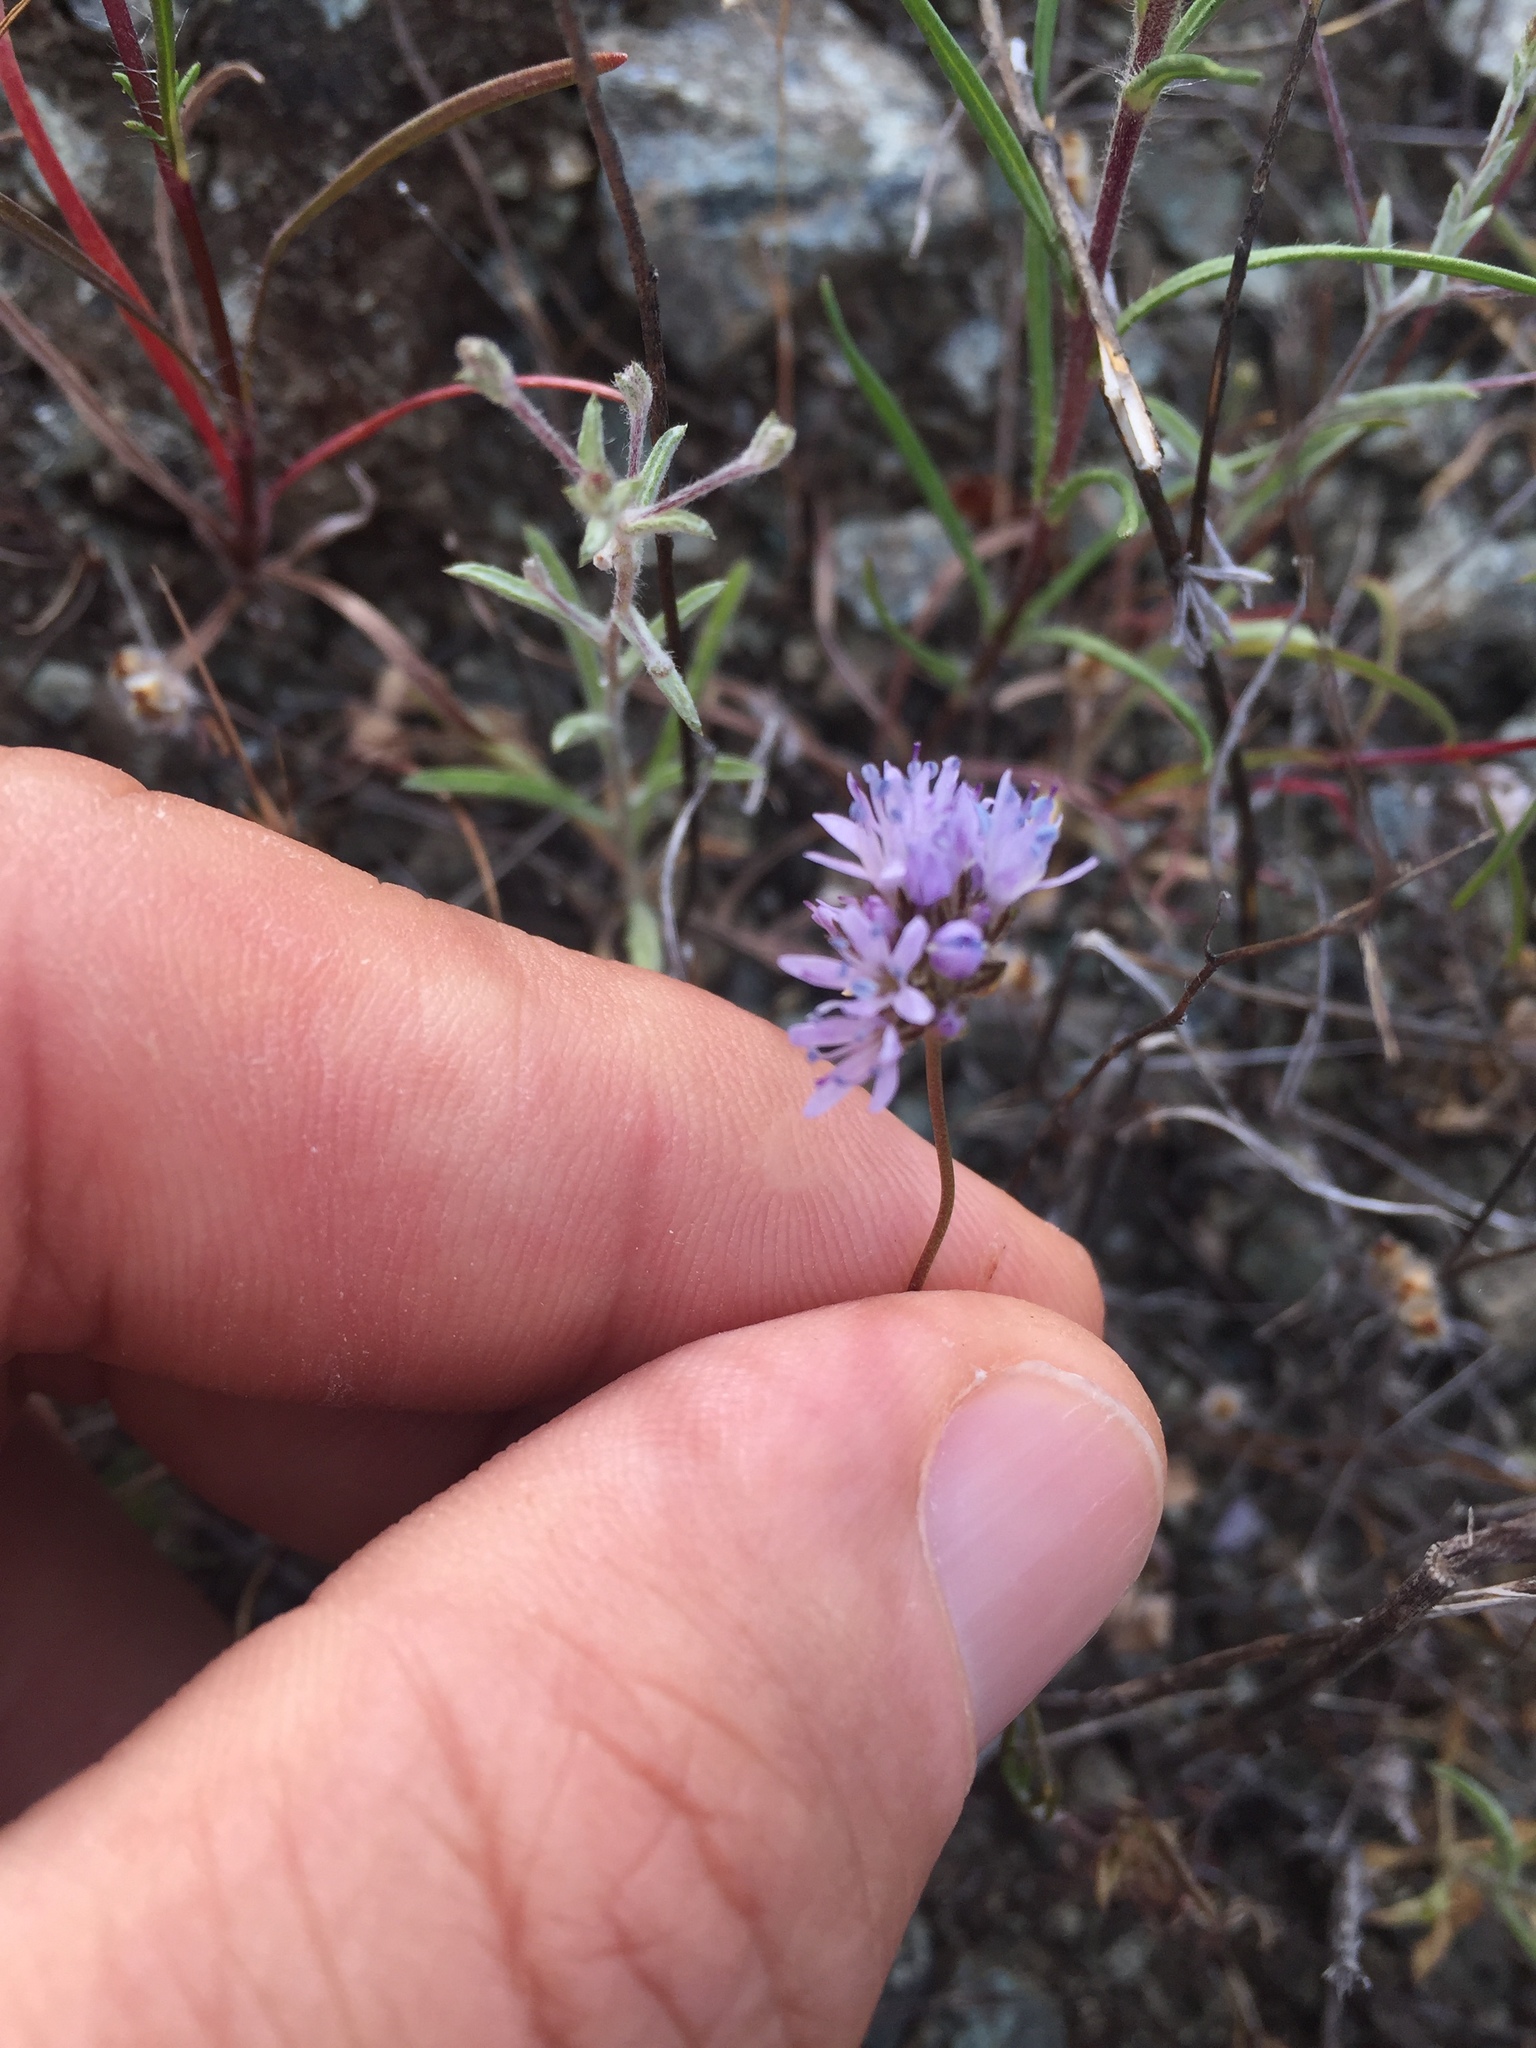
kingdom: Plantae
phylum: Tracheophyta
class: Magnoliopsida
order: Ericales
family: Polemoniaceae
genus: Gilia
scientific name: Gilia capitata
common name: Bluehead gilia
